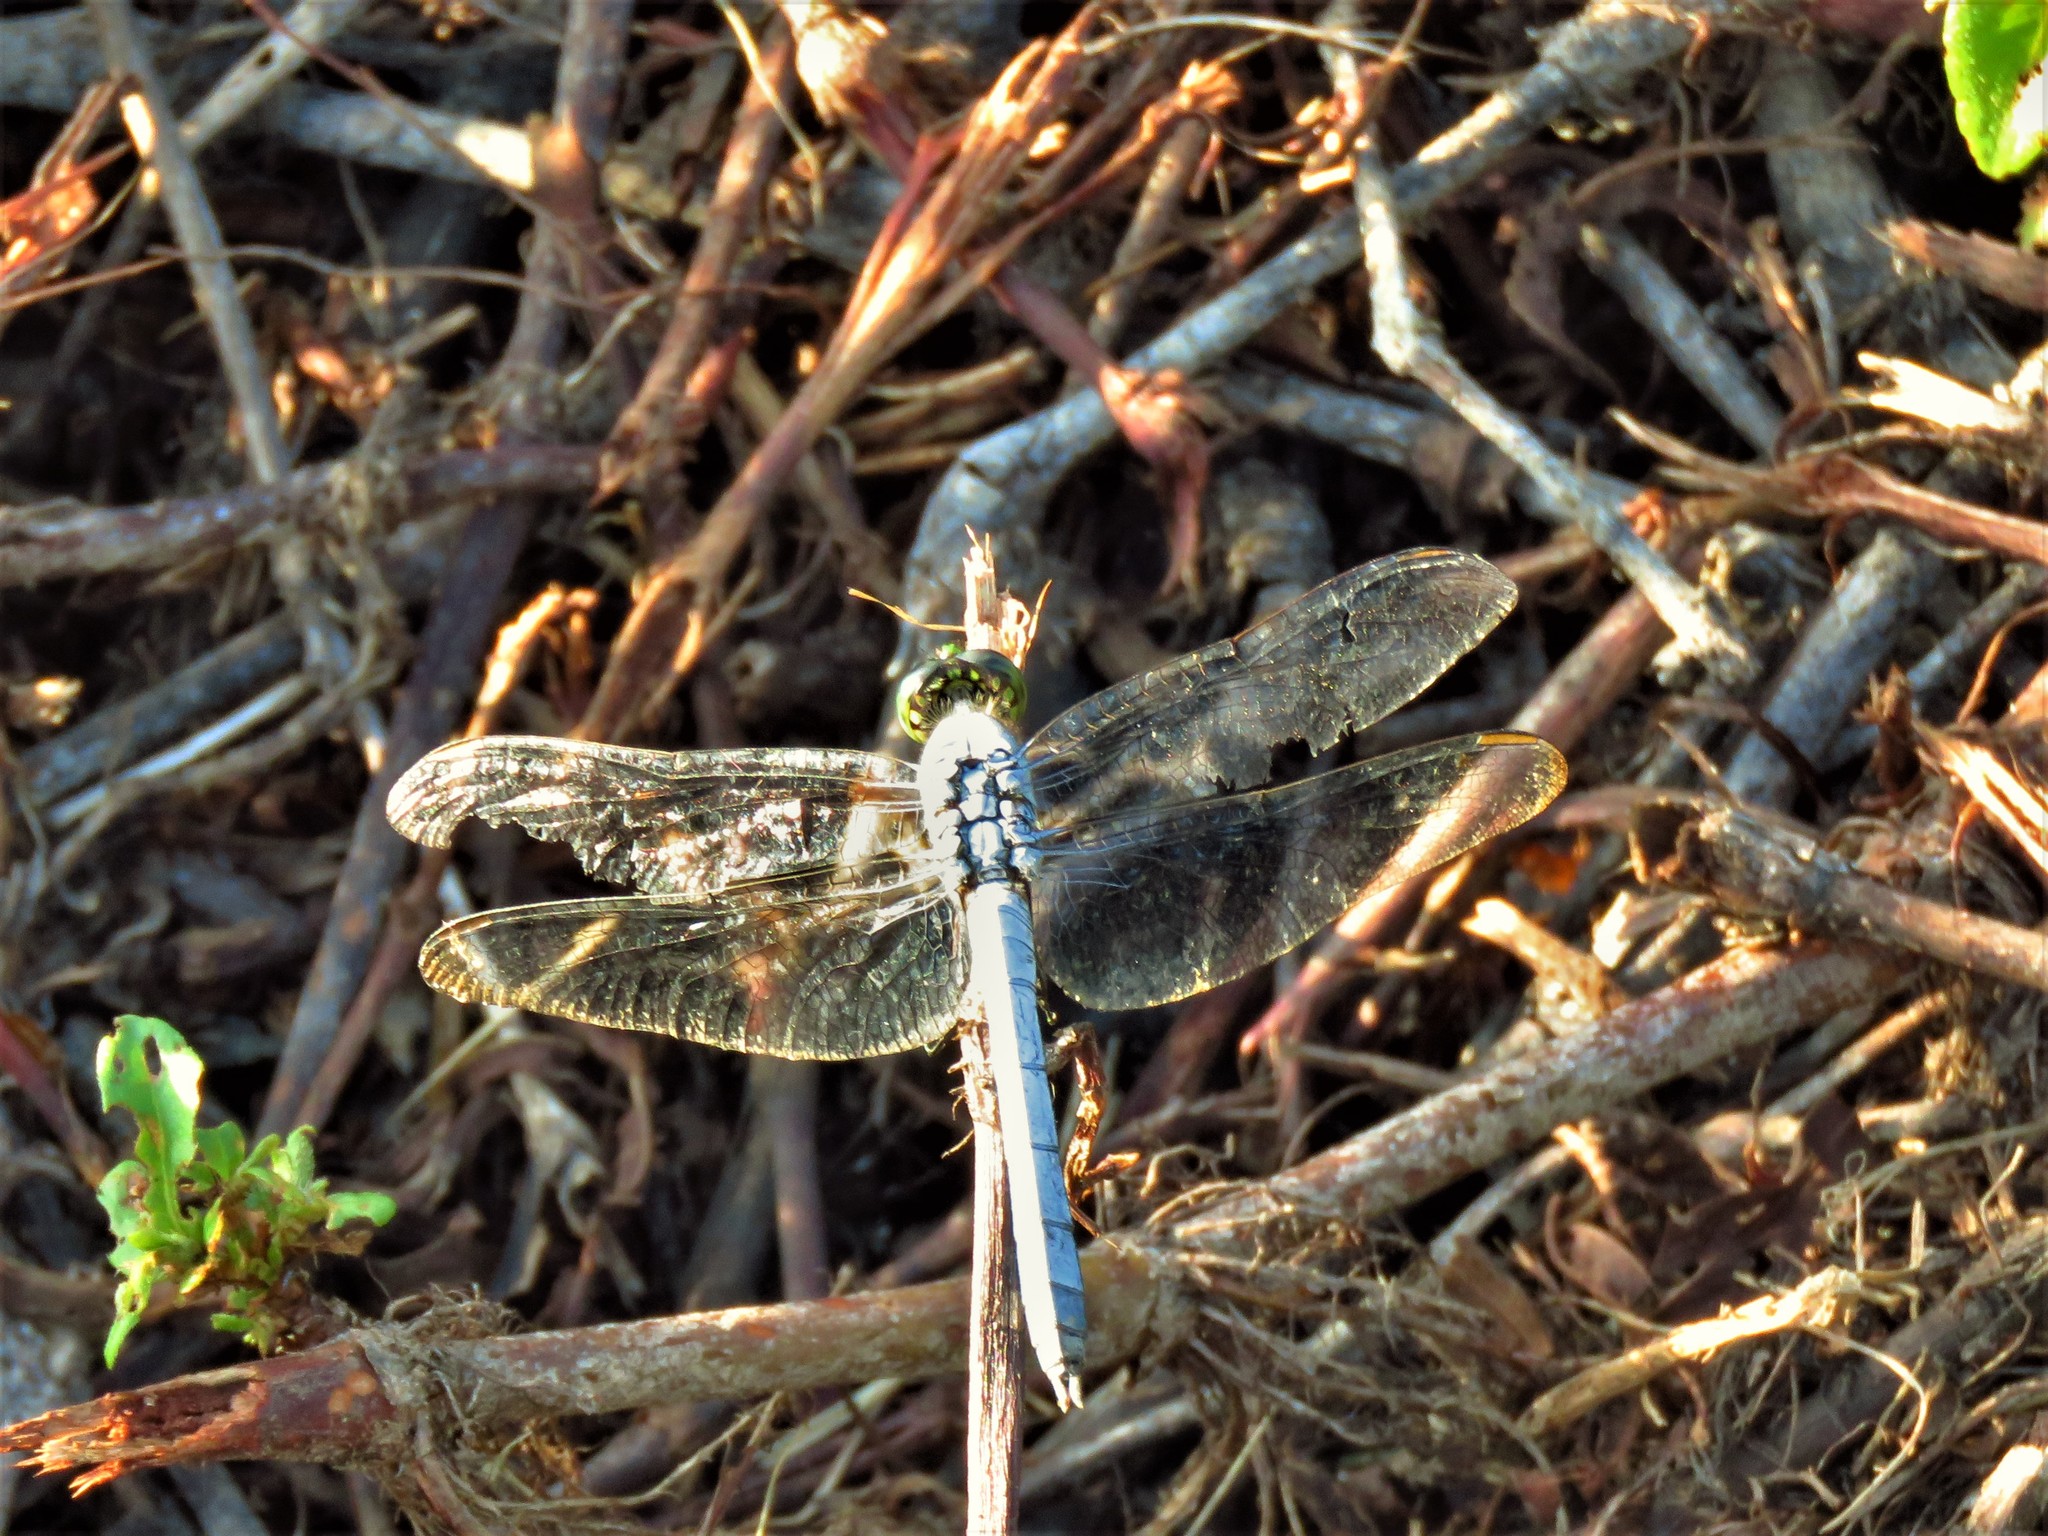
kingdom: Animalia
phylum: Arthropoda
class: Insecta
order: Odonata
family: Libellulidae
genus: Erythemis
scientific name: Erythemis simplicicollis
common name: Eastern pondhawk
